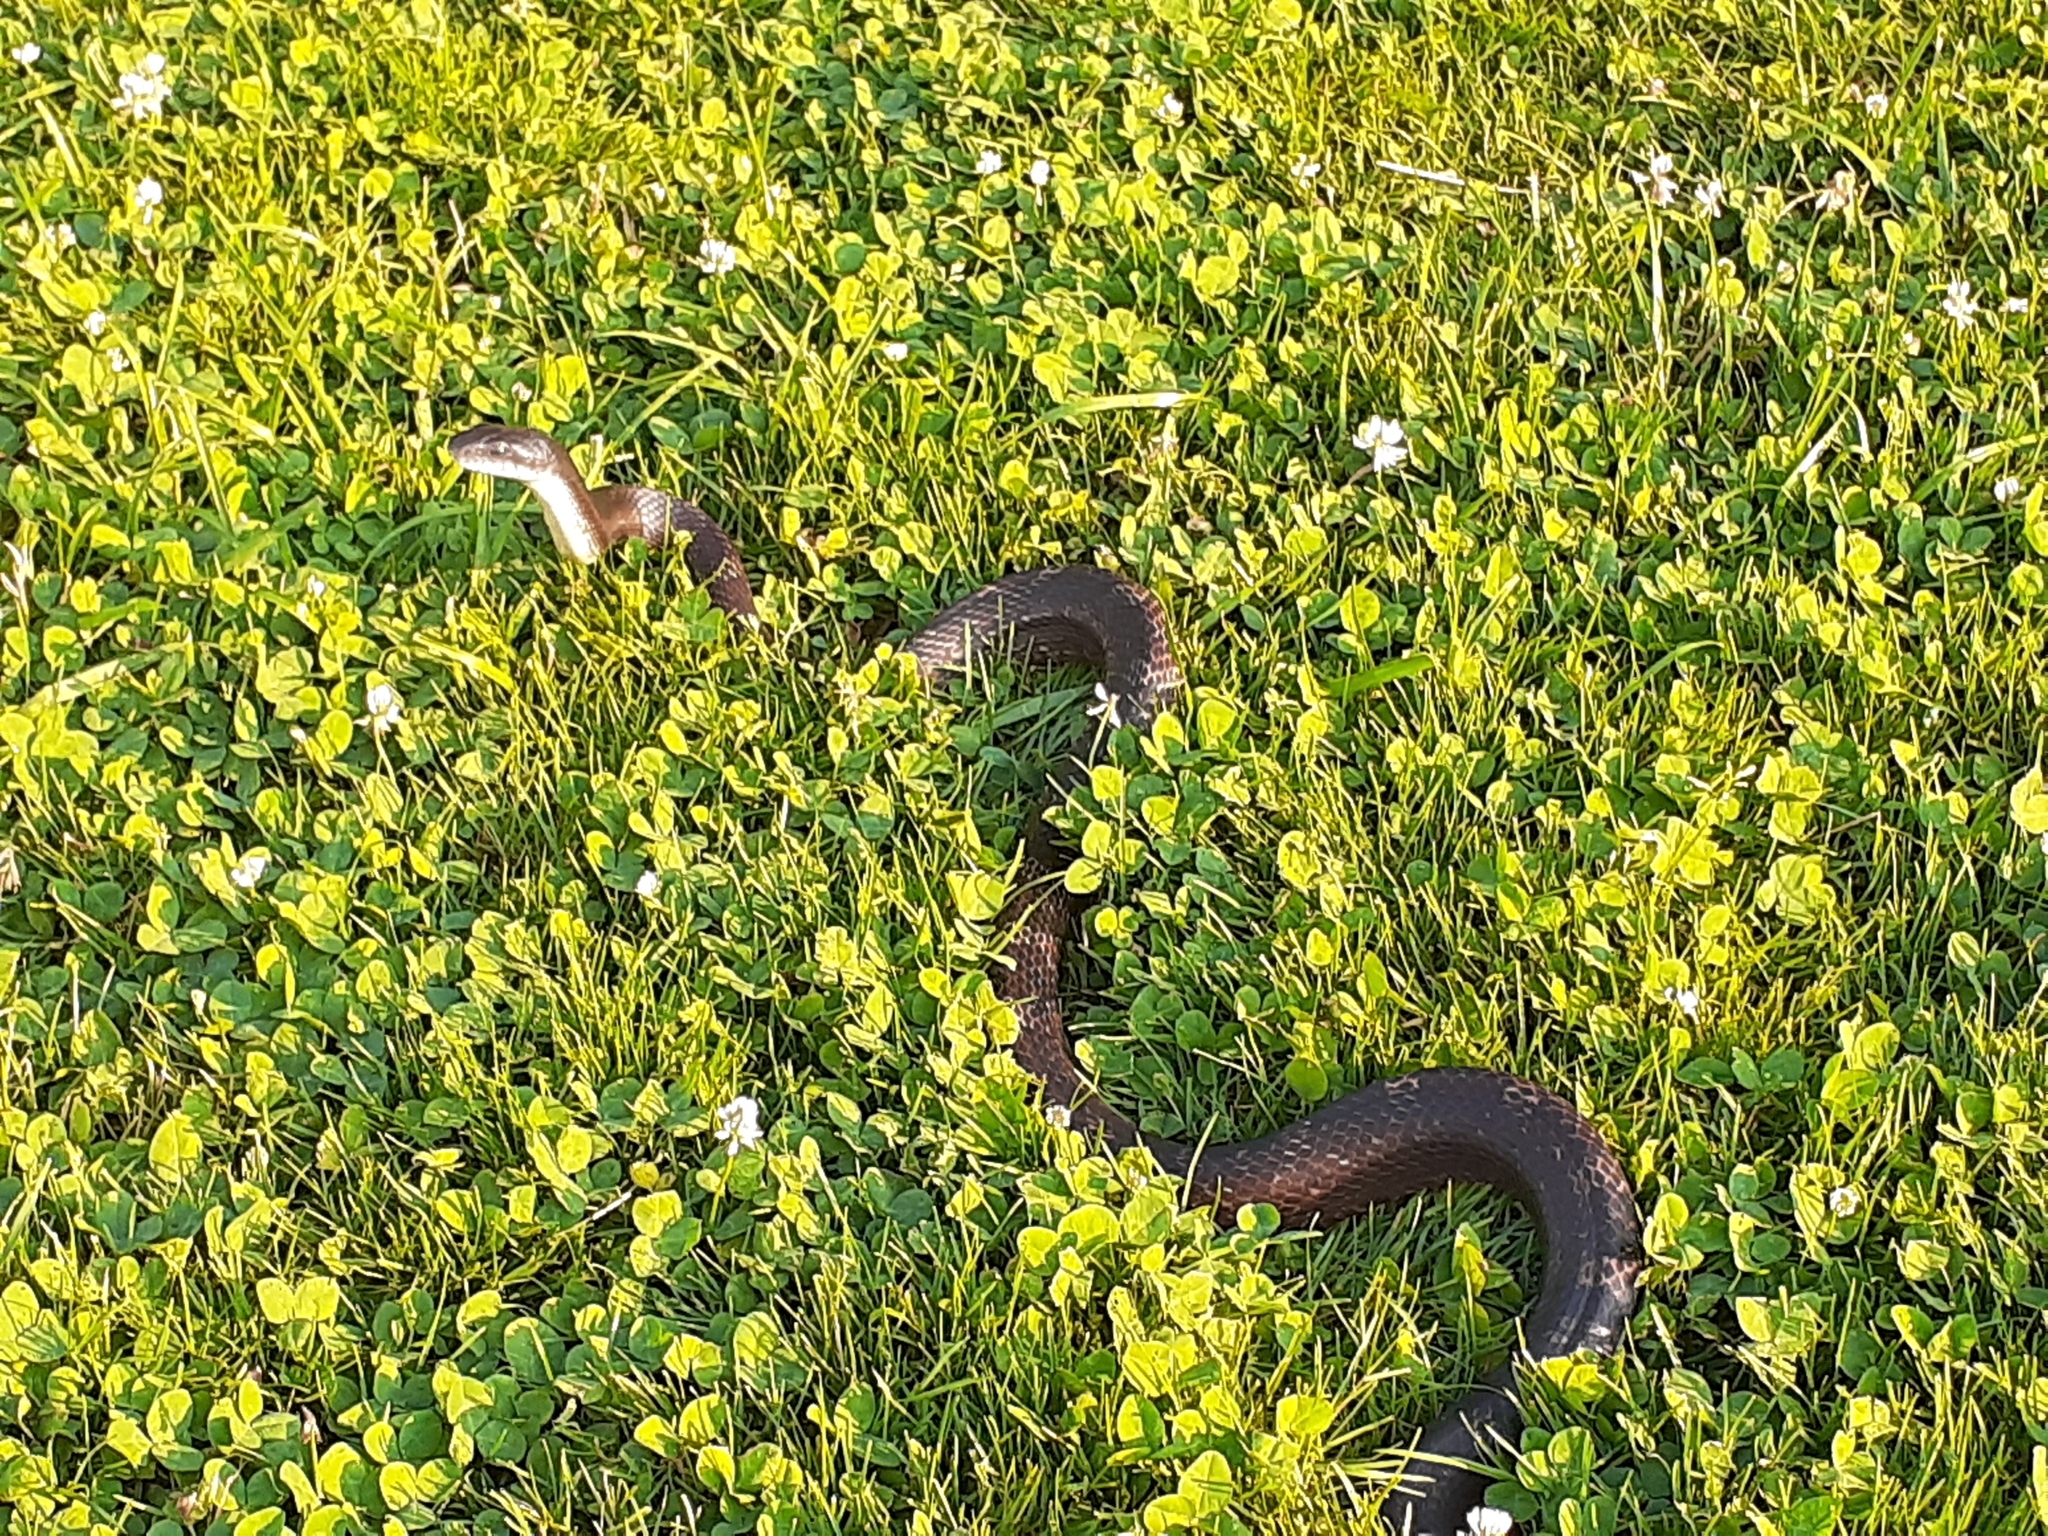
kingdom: Animalia
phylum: Chordata
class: Squamata
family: Colubridae
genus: Pantherophis
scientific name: Pantherophis spiloides
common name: Gray rat snake
